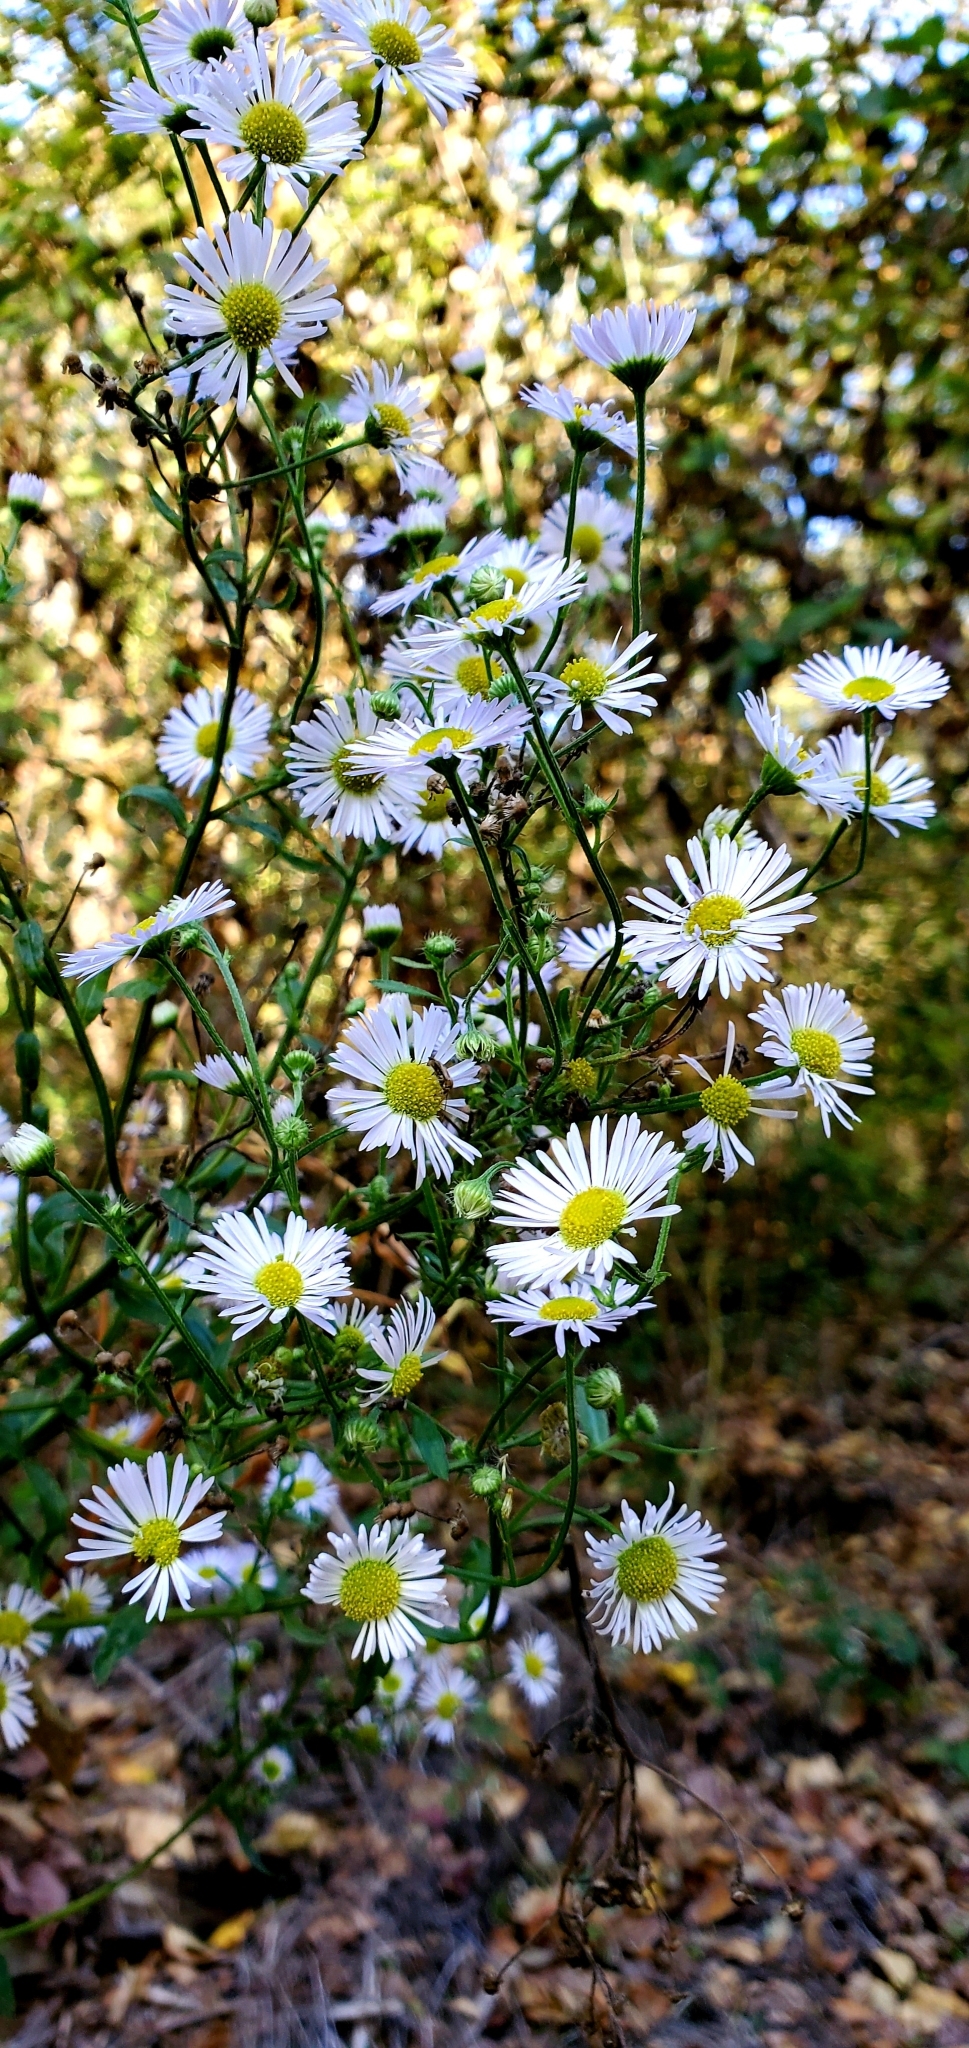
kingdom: Plantae
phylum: Tracheophyta
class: Magnoliopsida
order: Asterales
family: Asteraceae
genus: Erigeron
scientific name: Erigeron strigosus
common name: Common eastern fleabane
